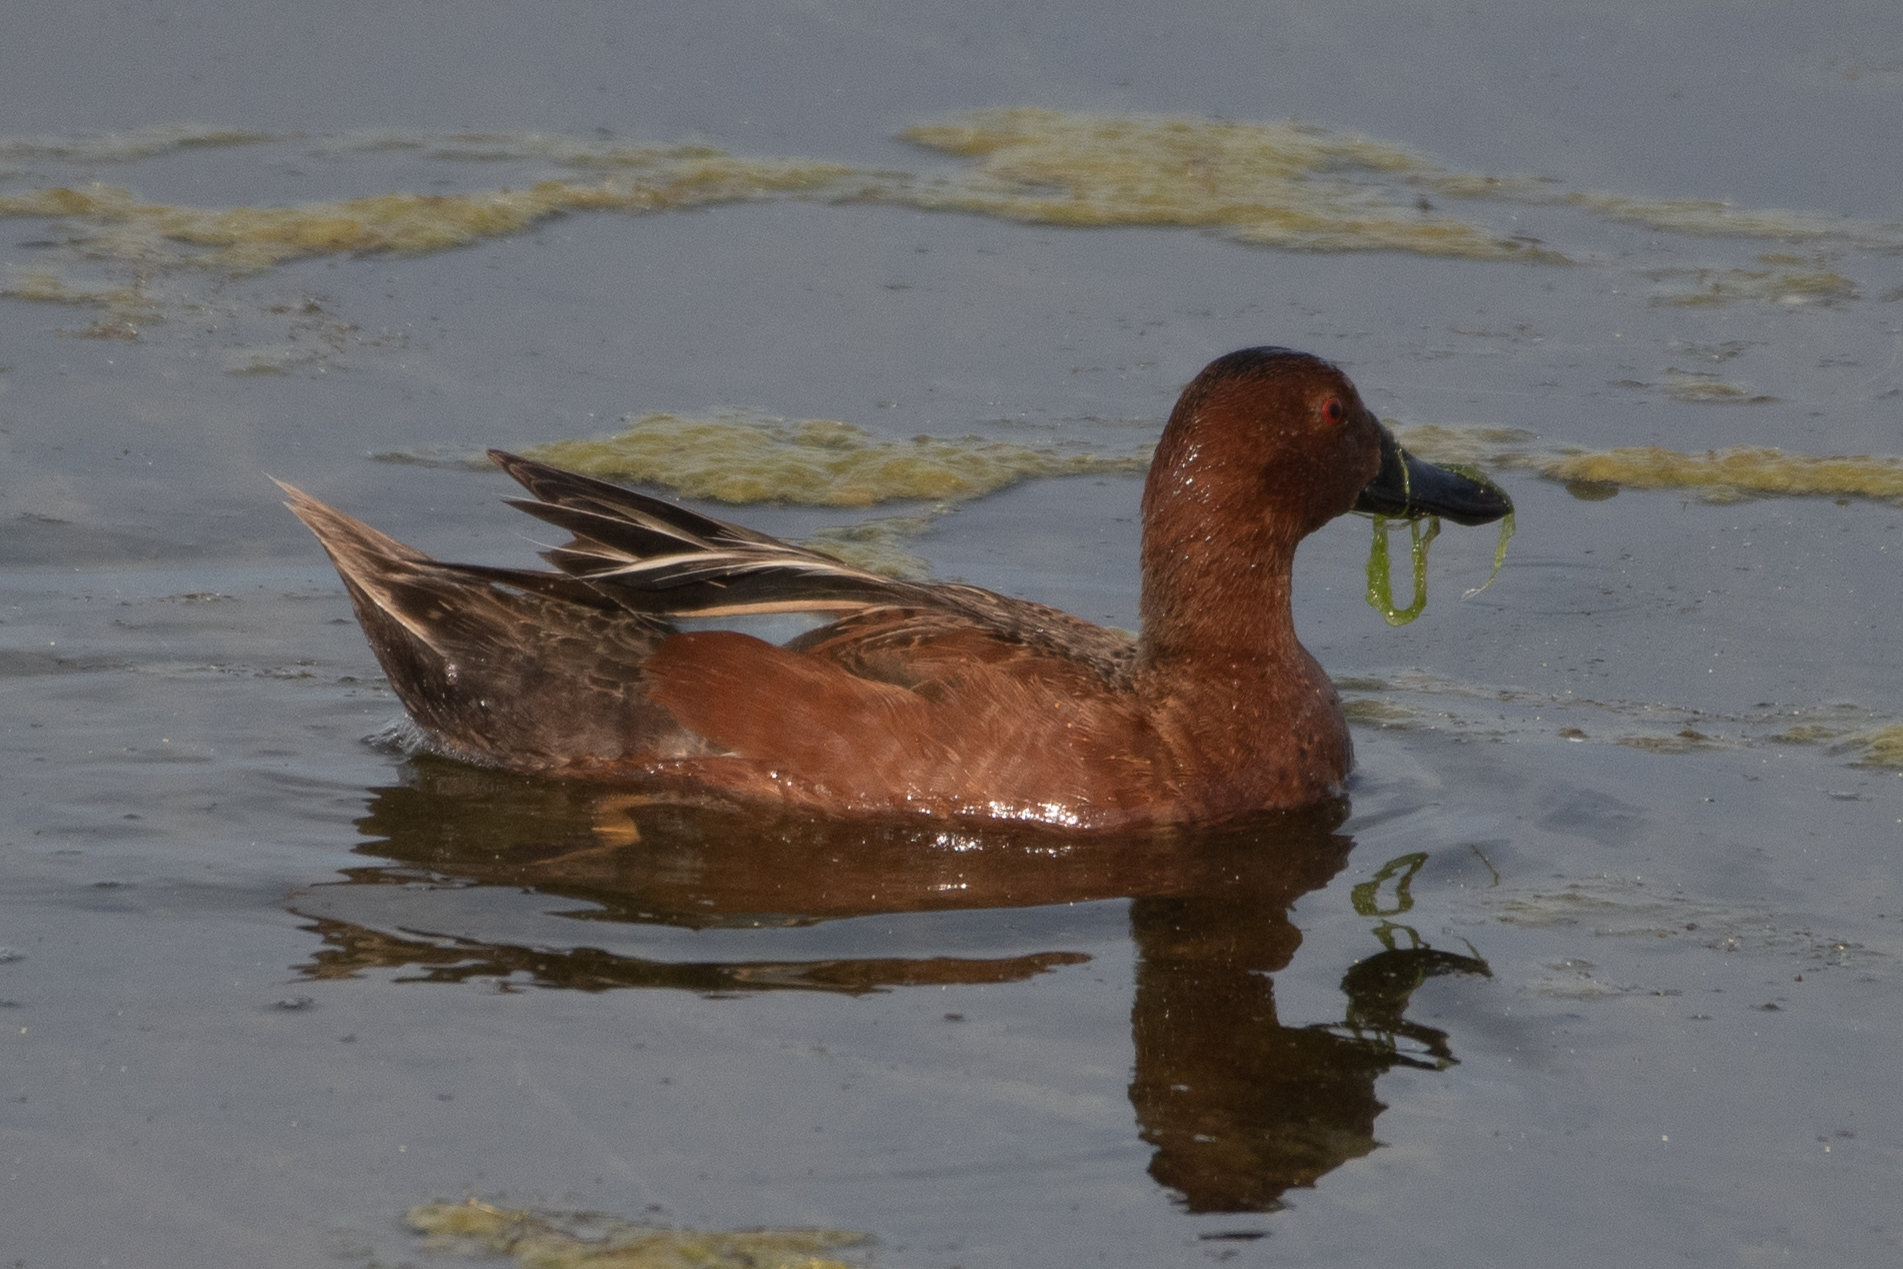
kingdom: Animalia
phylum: Chordata
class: Aves
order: Anseriformes
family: Anatidae
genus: Spatula
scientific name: Spatula cyanoptera
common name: Cinnamon teal
